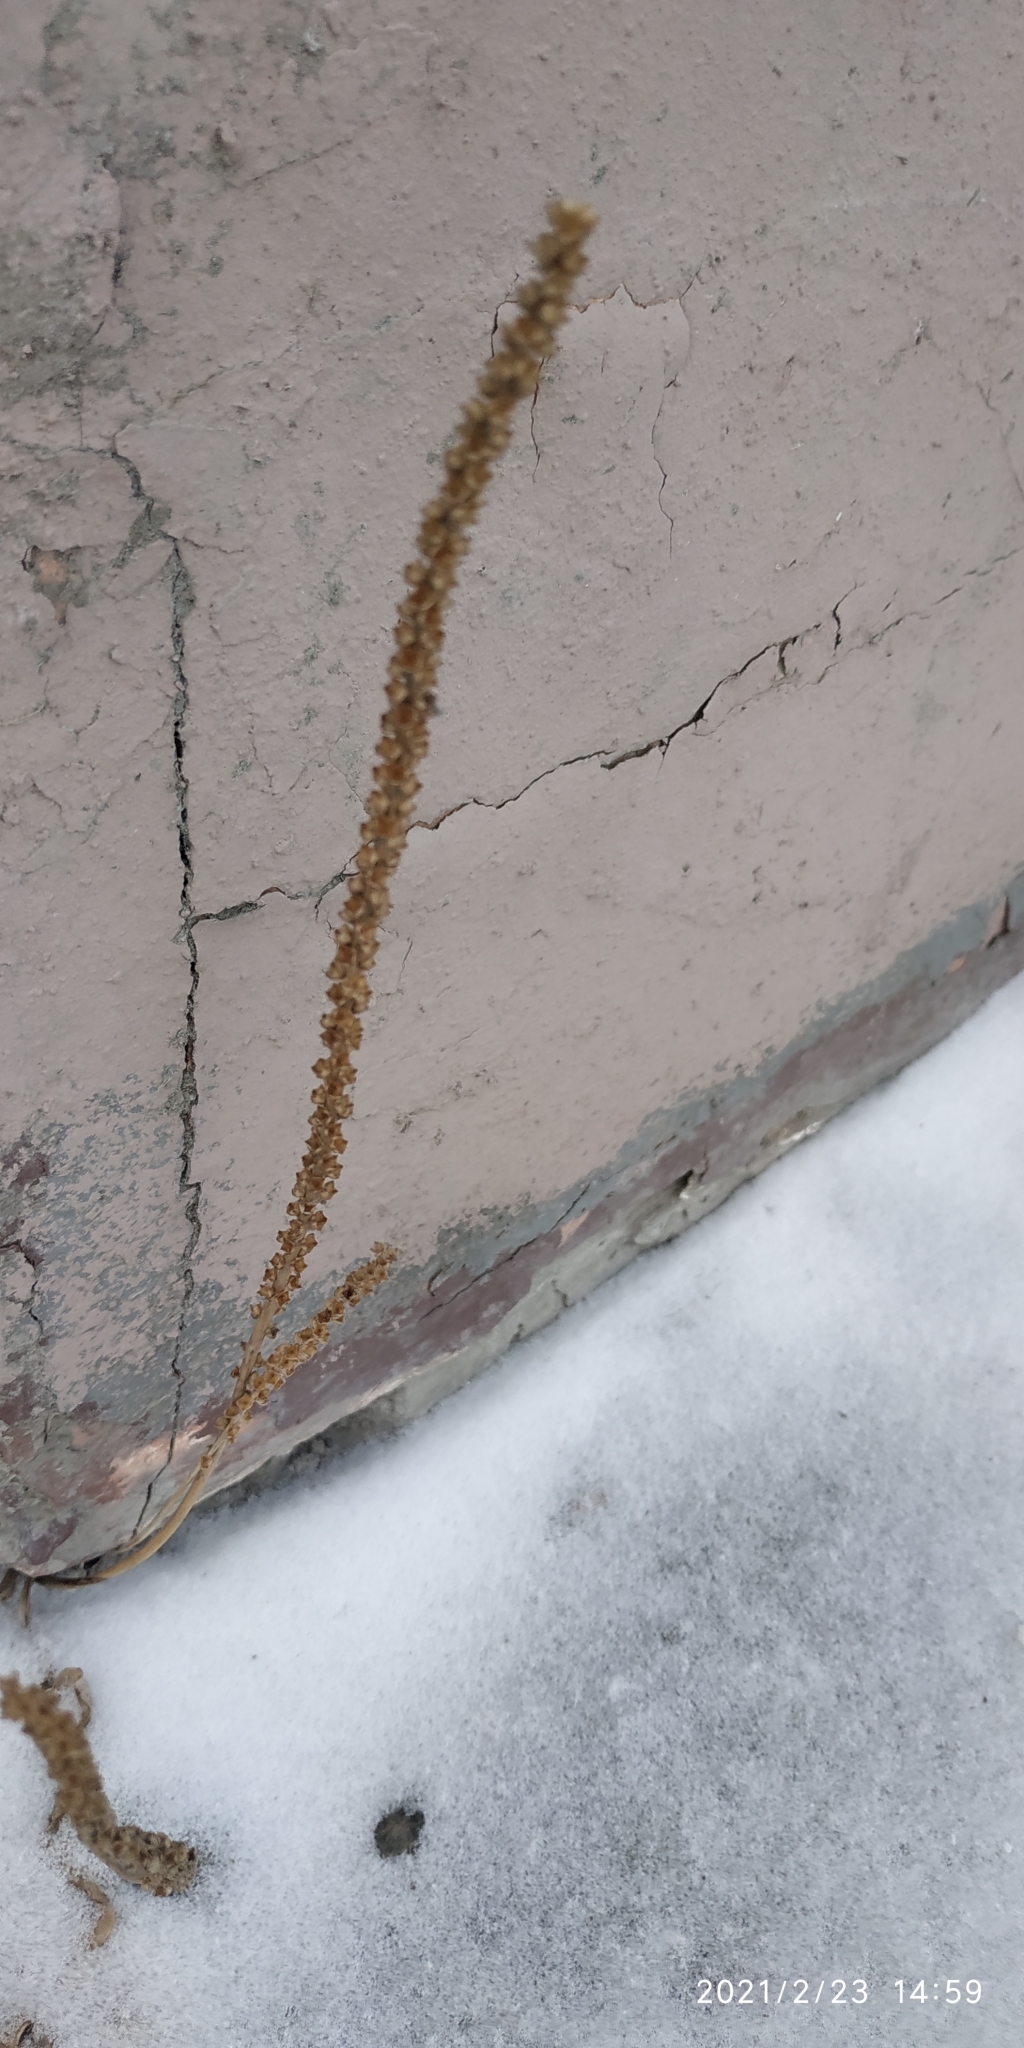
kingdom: Plantae
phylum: Tracheophyta
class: Magnoliopsida
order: Lamiales
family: Plantaginaceae
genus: Plantago
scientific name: Plantago major
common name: Common plantain
